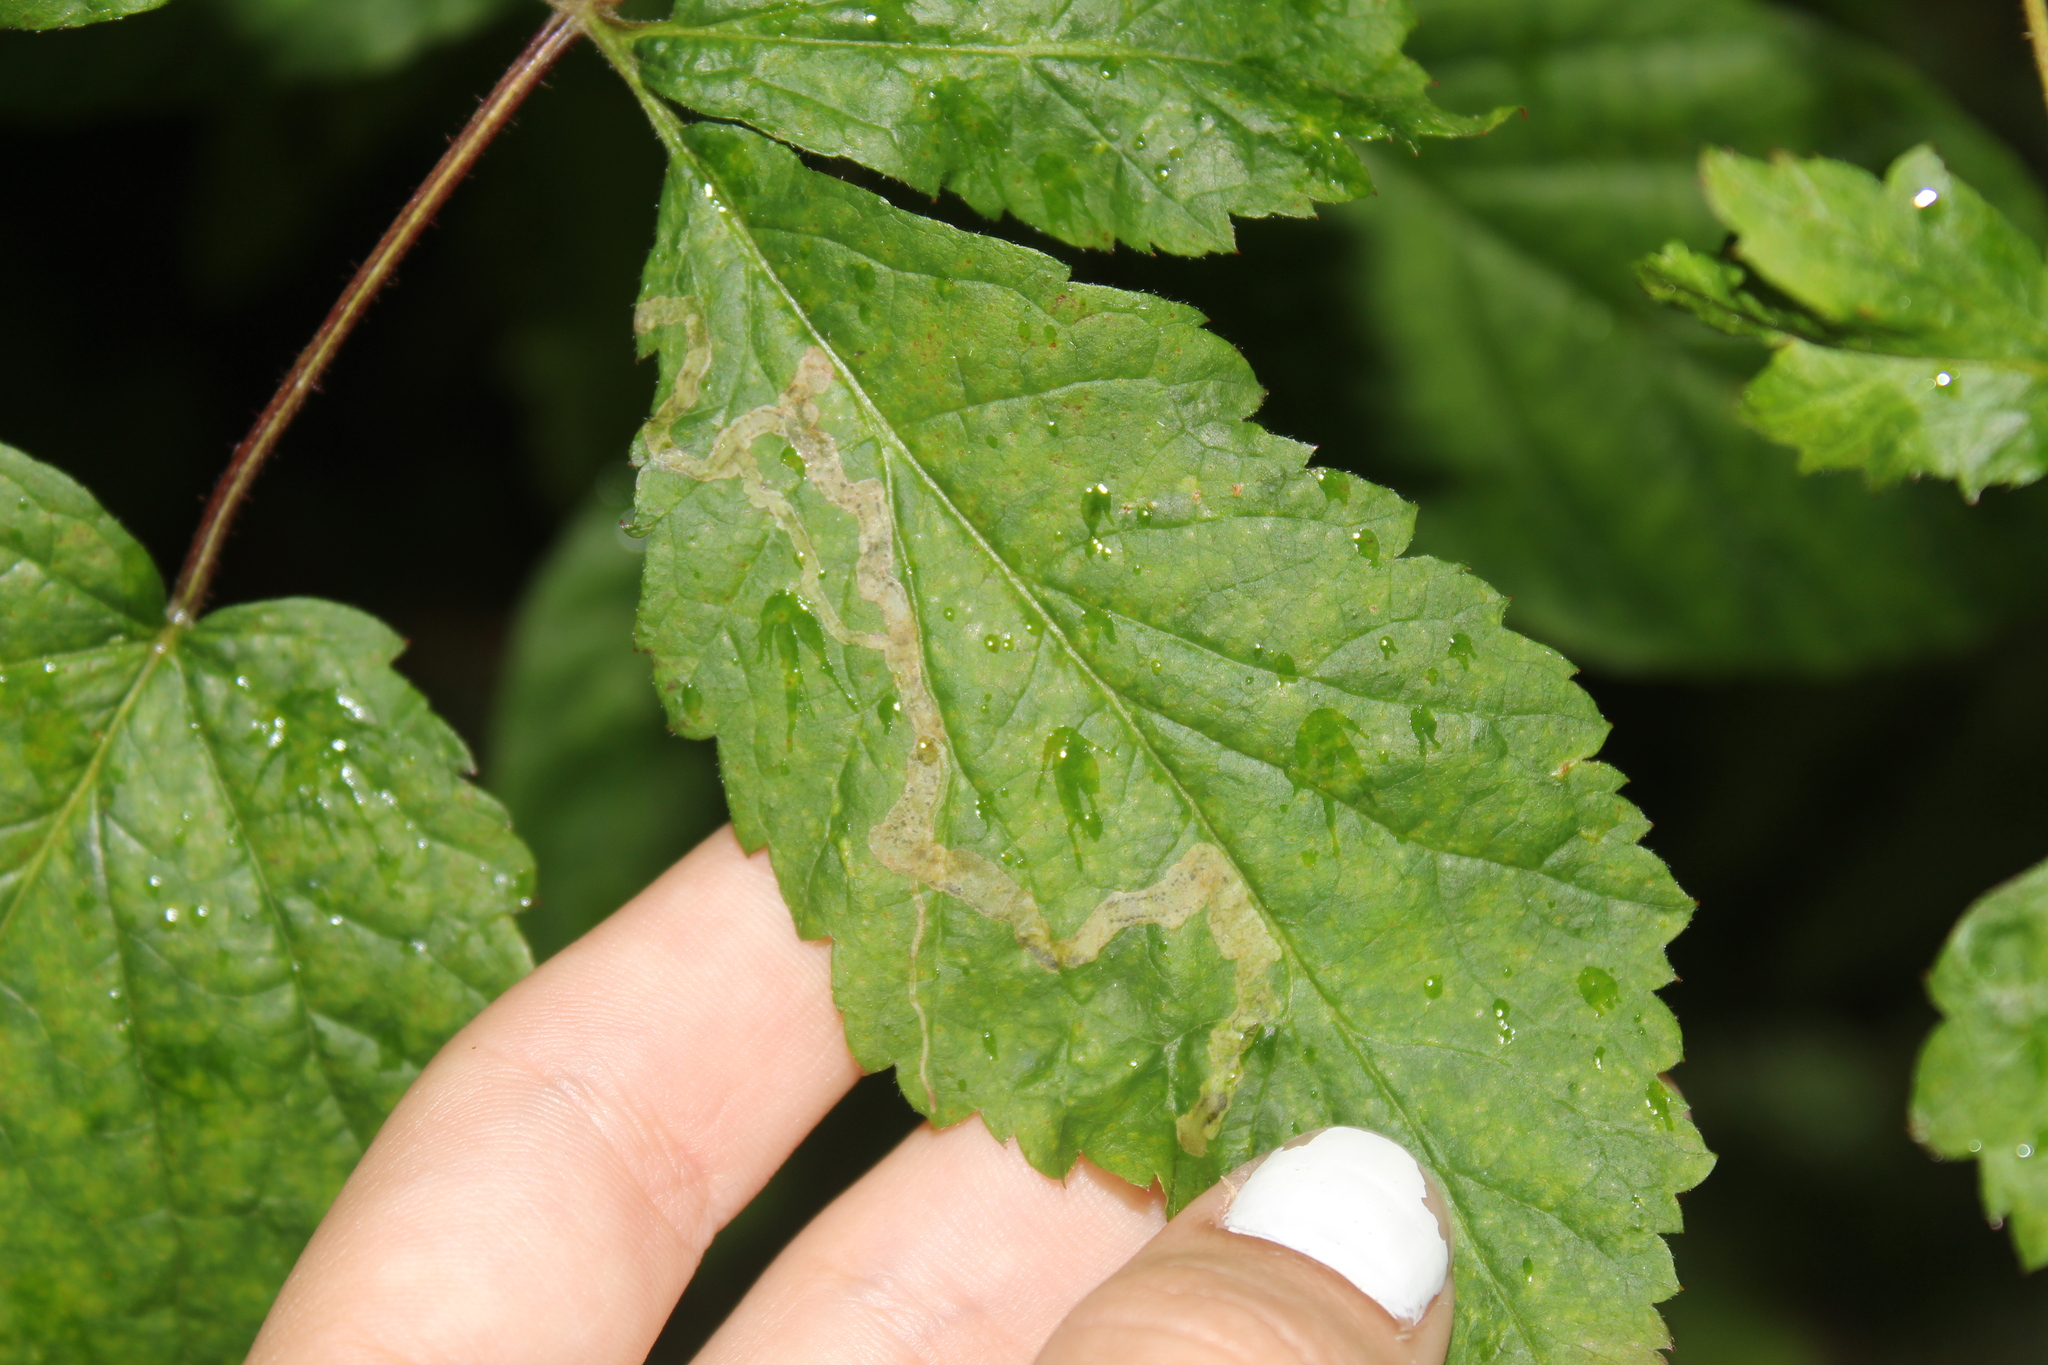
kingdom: Animalia
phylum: Arthropoda
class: Insecta
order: Diptera
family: Agromyzidae
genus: Agromyza
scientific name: Agromyza vockerothi
